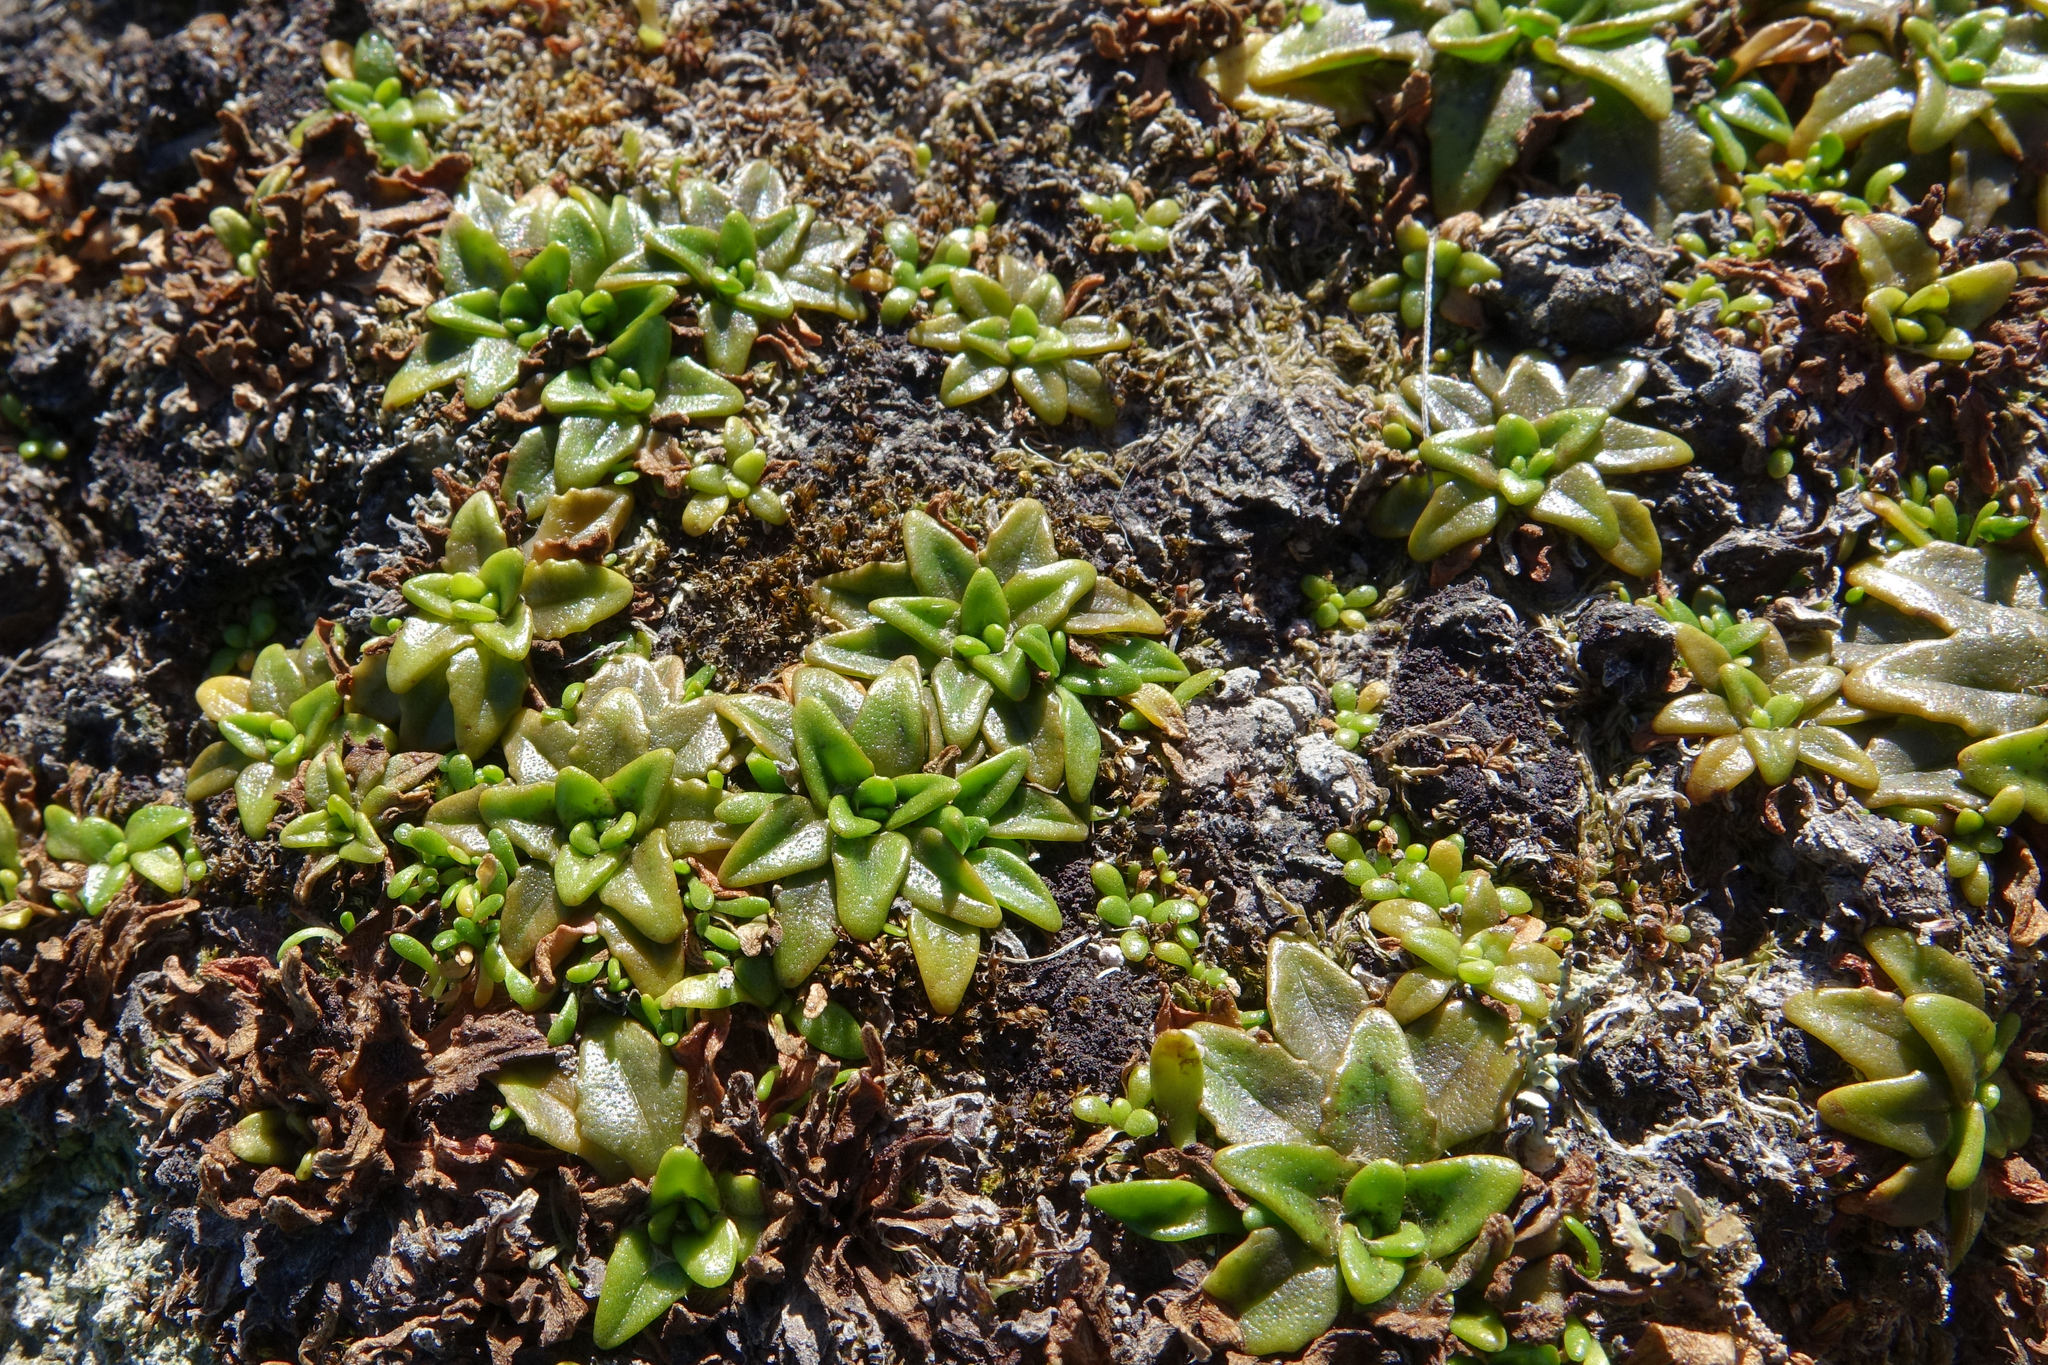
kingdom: Plantae
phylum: Tracheophyta
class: Magnoliopsida
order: Lamiales
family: Plantaginaceae
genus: Plantago
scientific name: Plantago triandra
